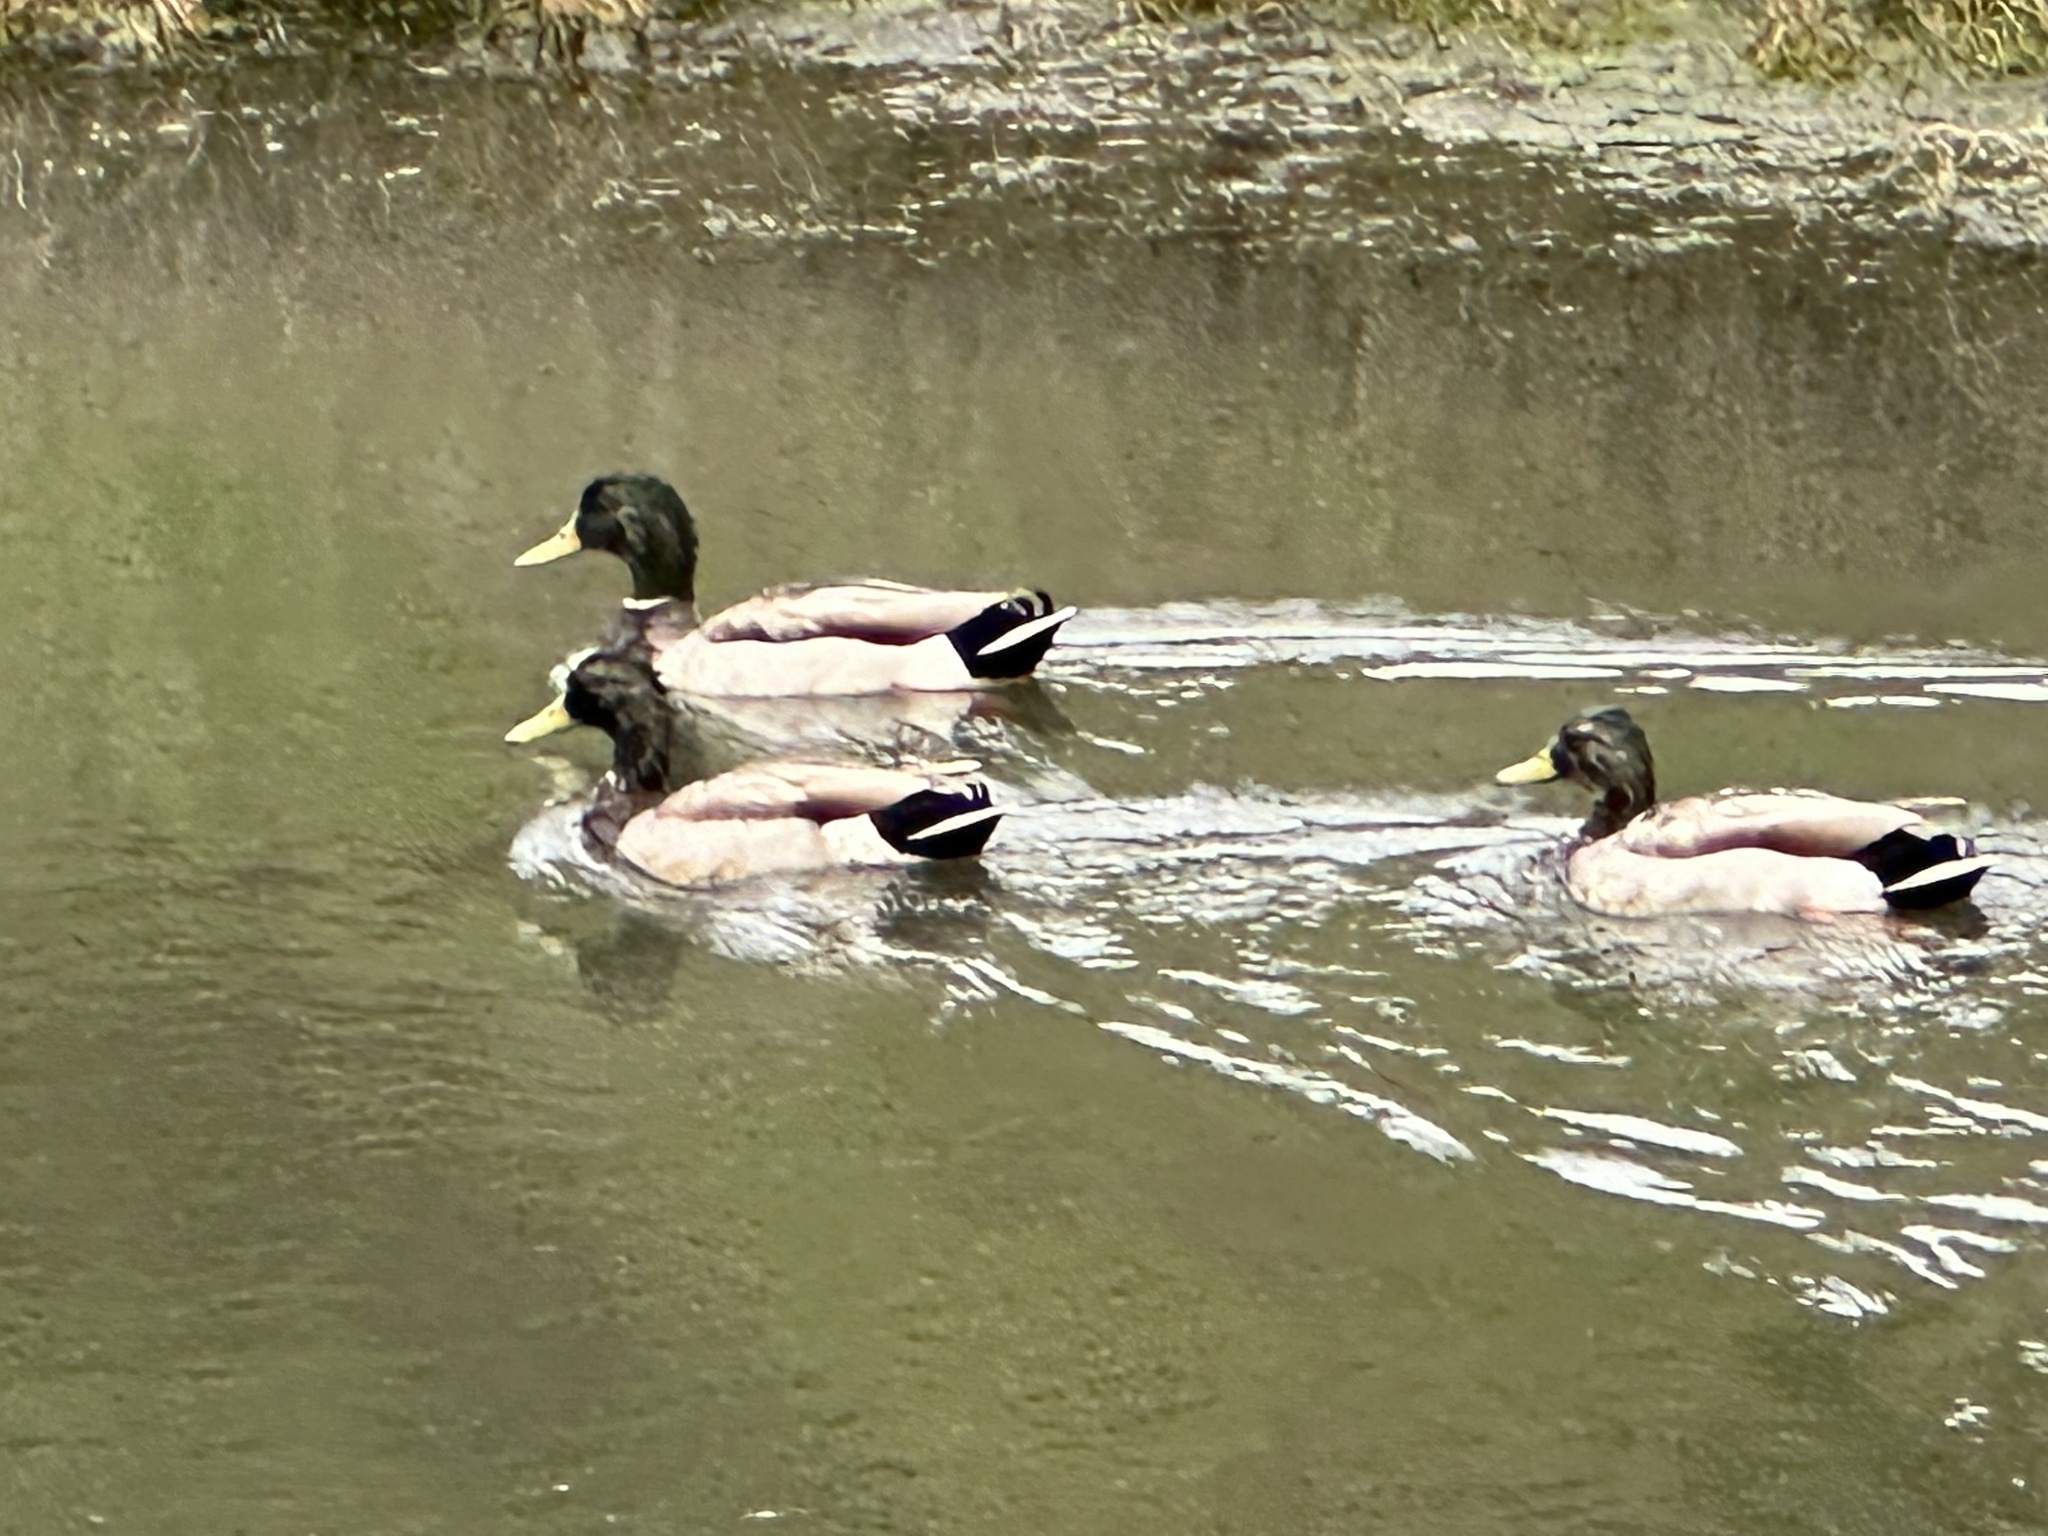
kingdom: Animalia
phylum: Chordata
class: Aves
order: Anseriformes
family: Anatidae
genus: Anas
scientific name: Anas platyrhynchos
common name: Mallard
